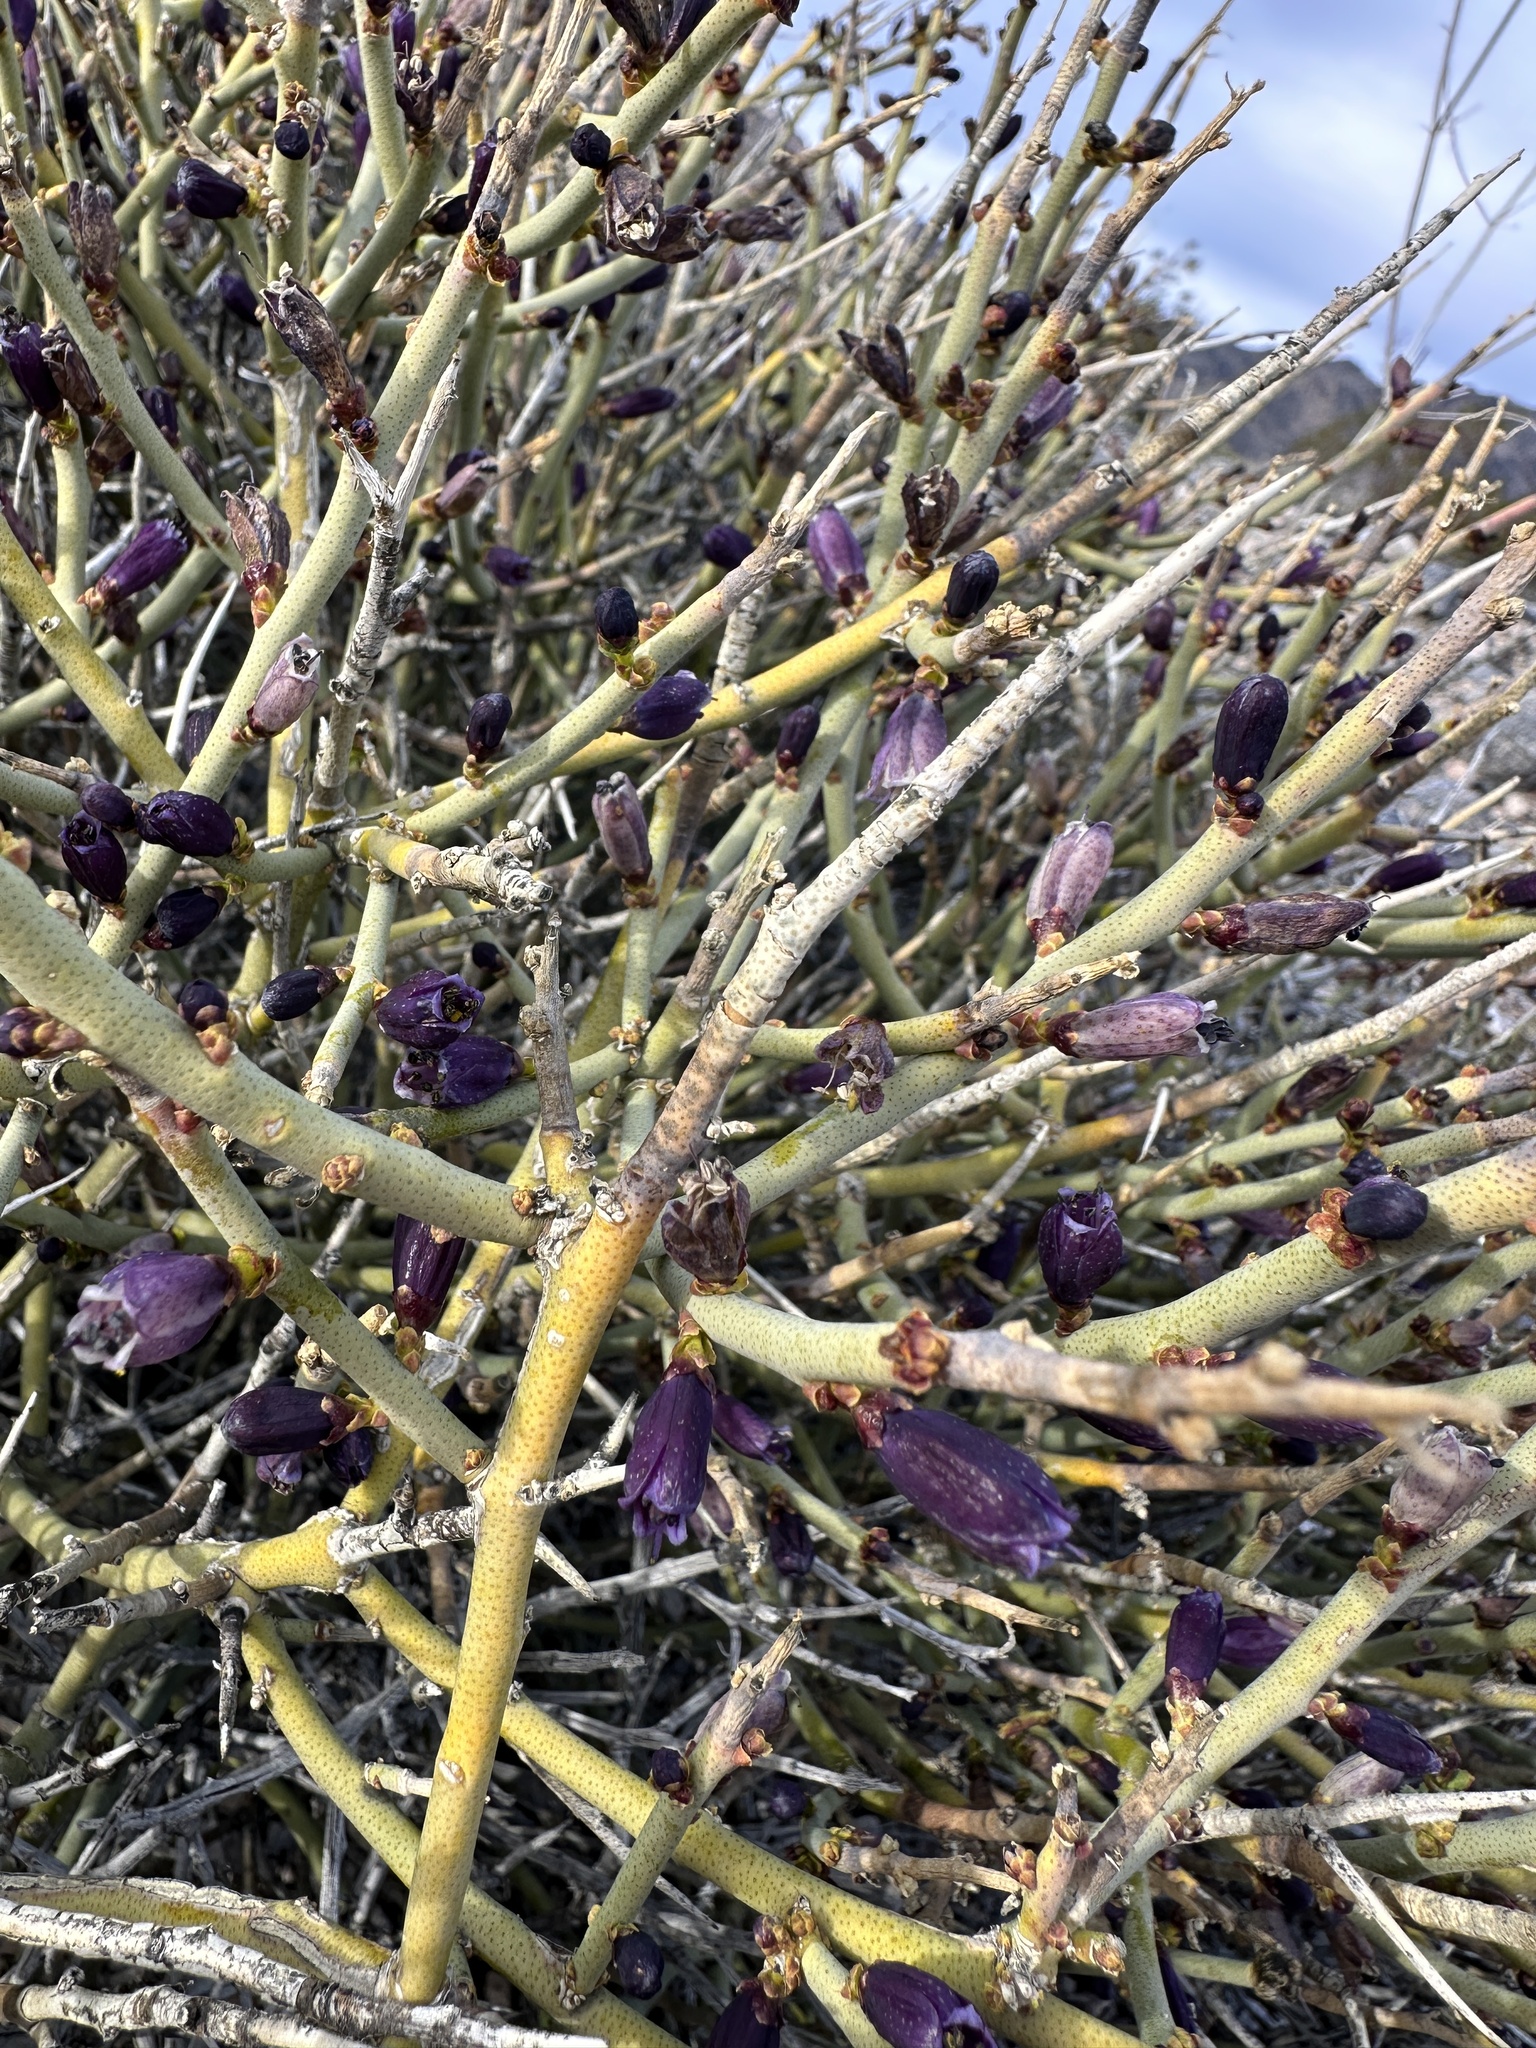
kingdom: Plantae
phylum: Tracheophyta
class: Magnoliopsida
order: Sapindales
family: Rutaceae
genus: Thamnosma
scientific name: Thamnosma montana
